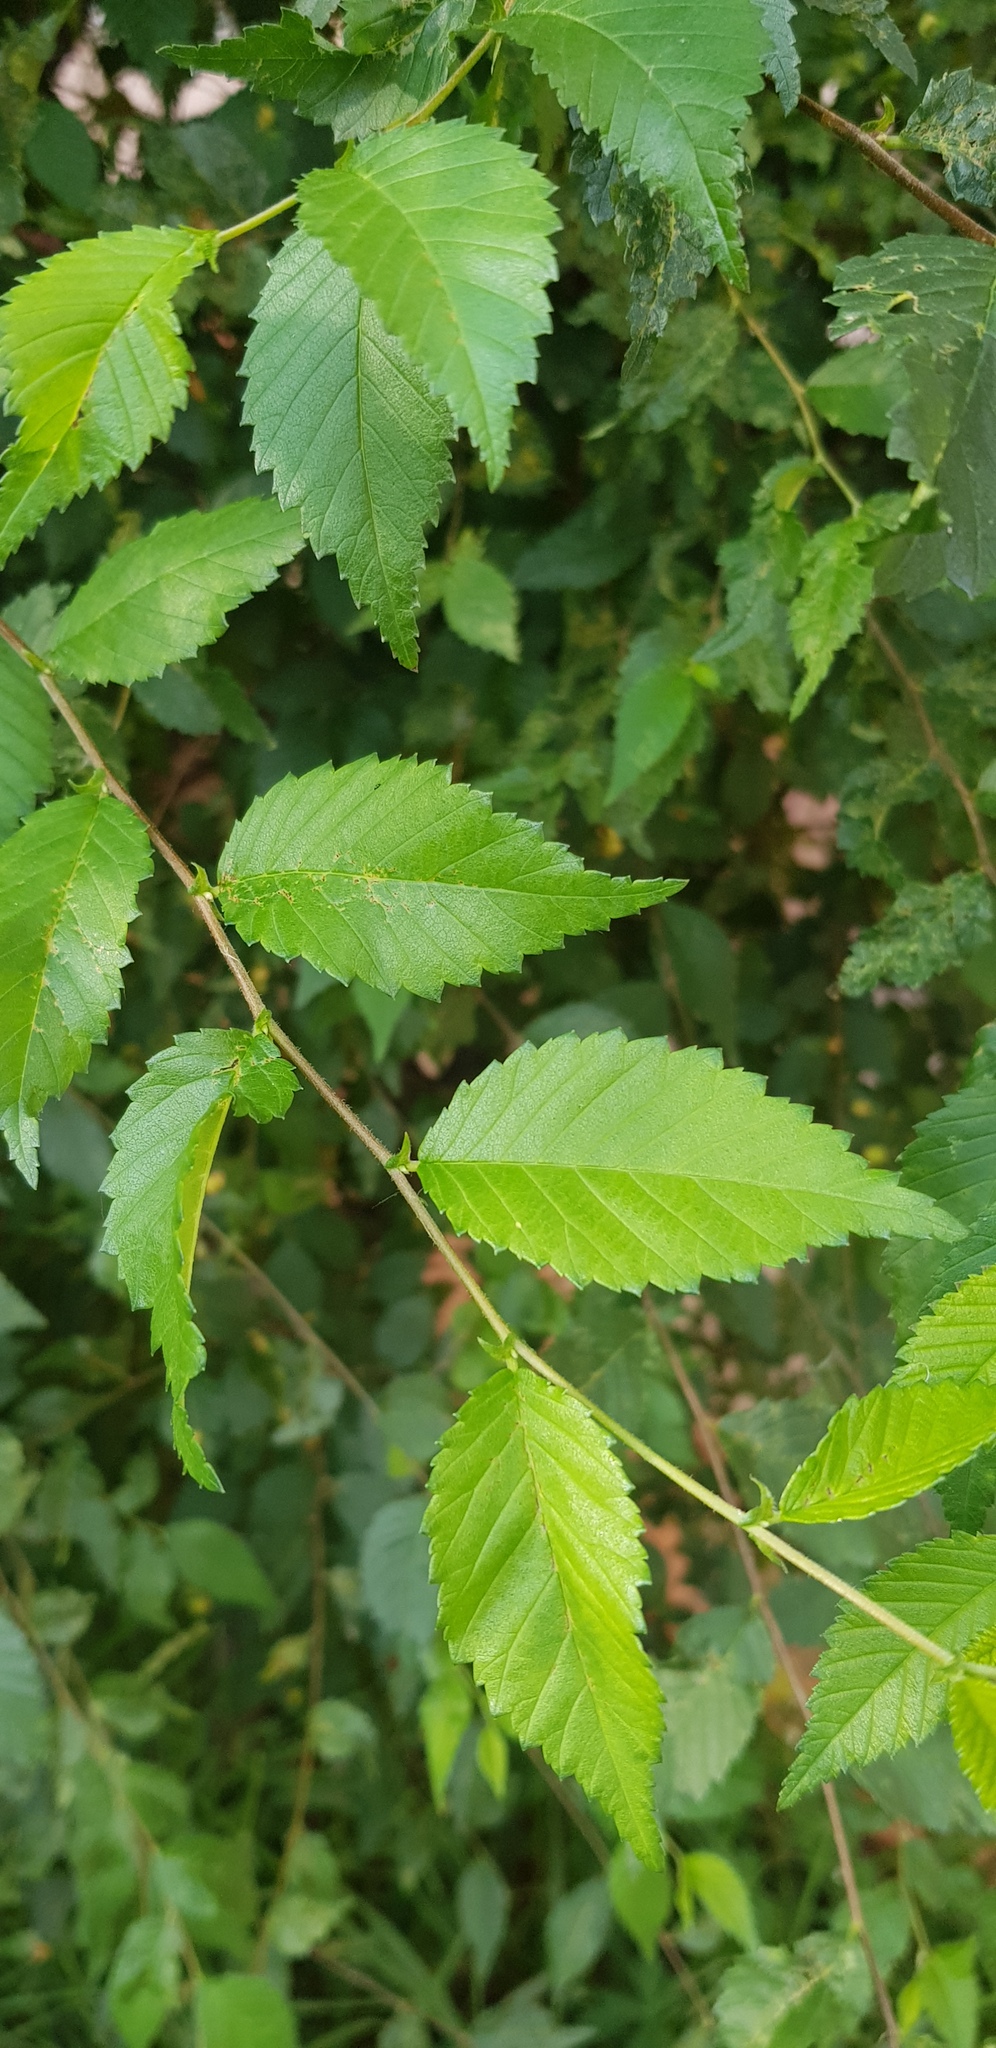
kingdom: Plantae
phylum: Tracheophyta
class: Magnoliopsida
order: Rosales
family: Ulmaceae
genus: Ulmus
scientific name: Ulmus pumila
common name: Siberian elm
